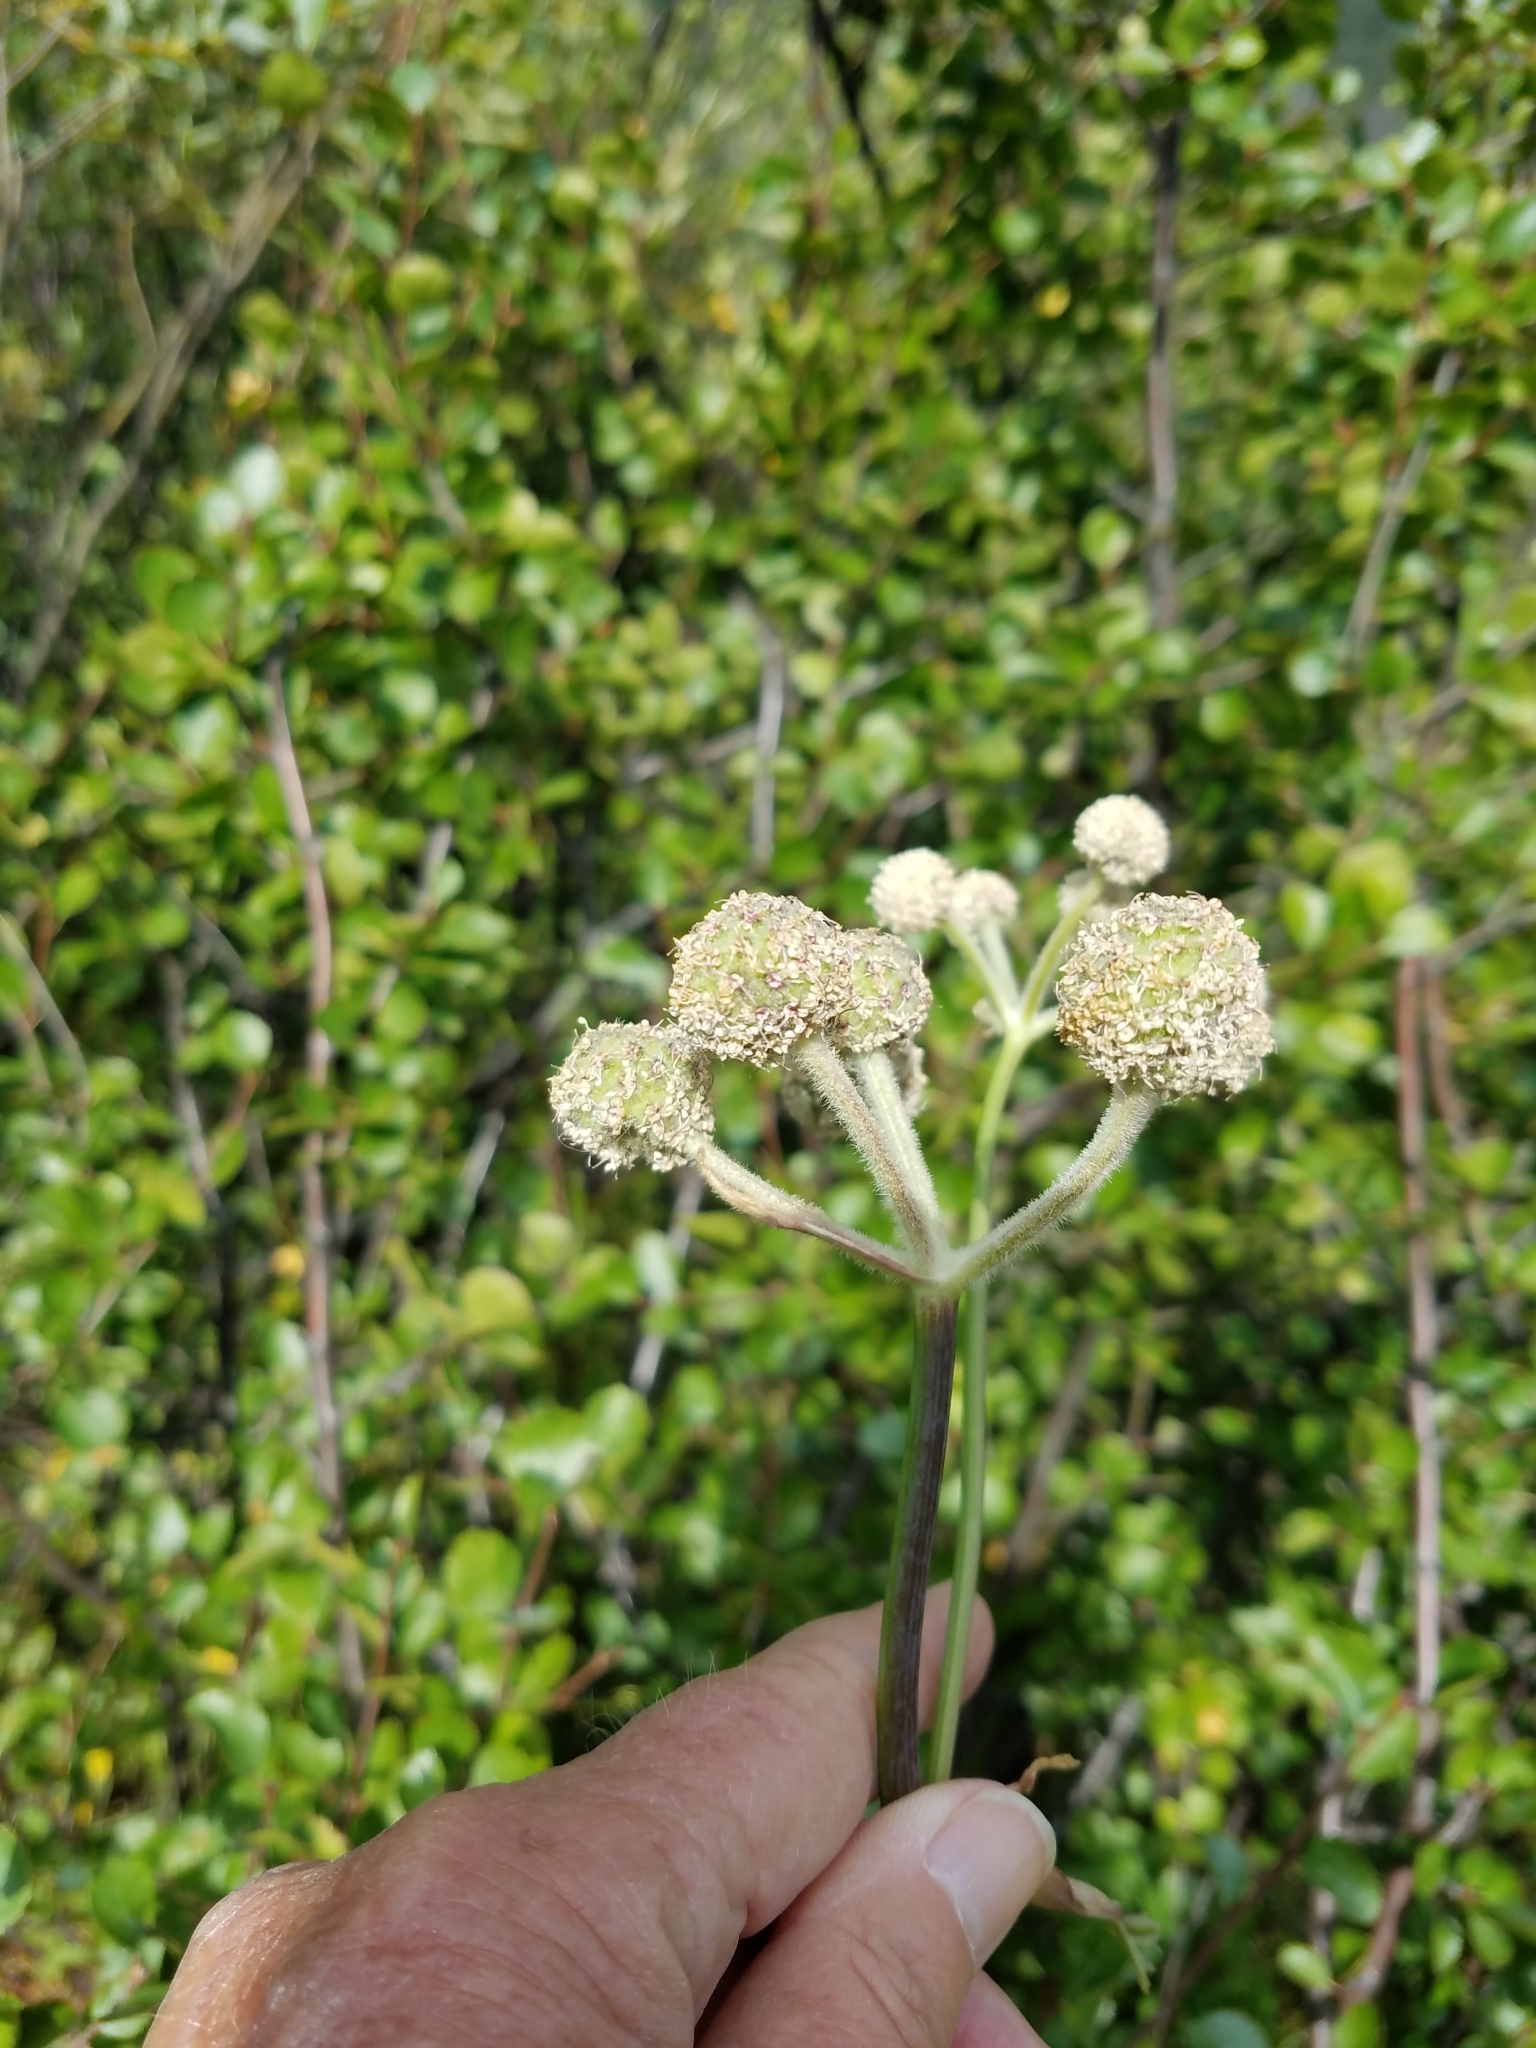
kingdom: Plantae
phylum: Tracheophyta
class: Magnoliopsida
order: Apiales
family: Apiaceae
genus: Angelica
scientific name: Angelica capitellata
